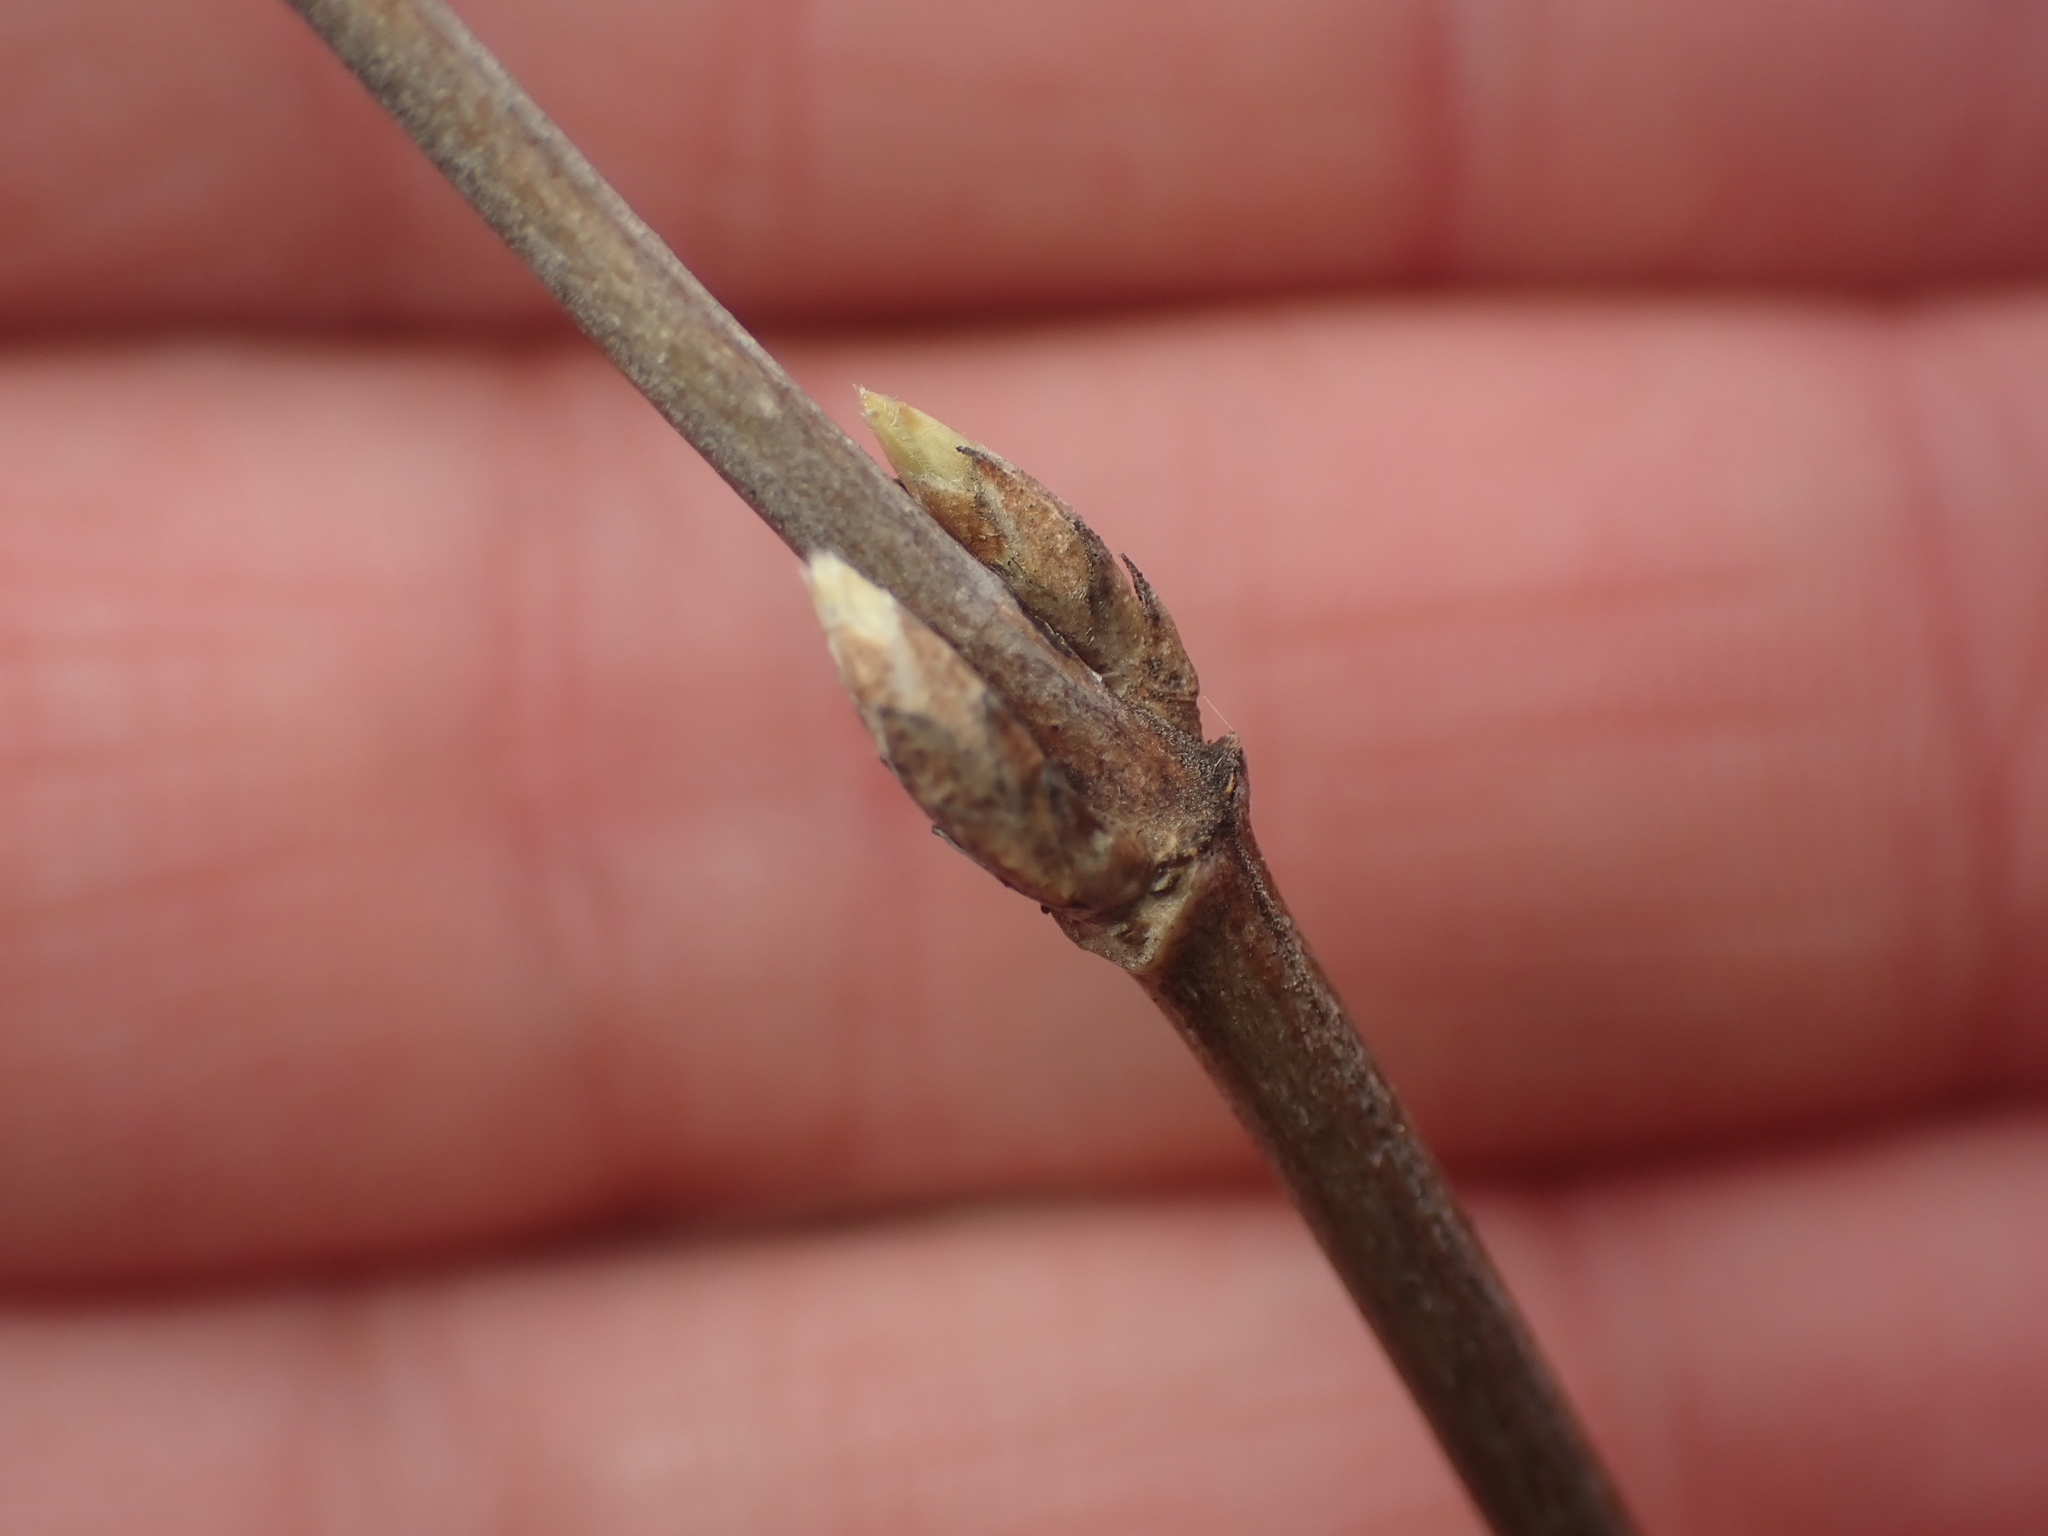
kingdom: Plantae
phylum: Tracheophyta
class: Magnoliopsida
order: Dipsacales
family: Caprifoliaceae
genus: Diervilla
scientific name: Diervilla lonicera
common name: Bush-honeysuckle
